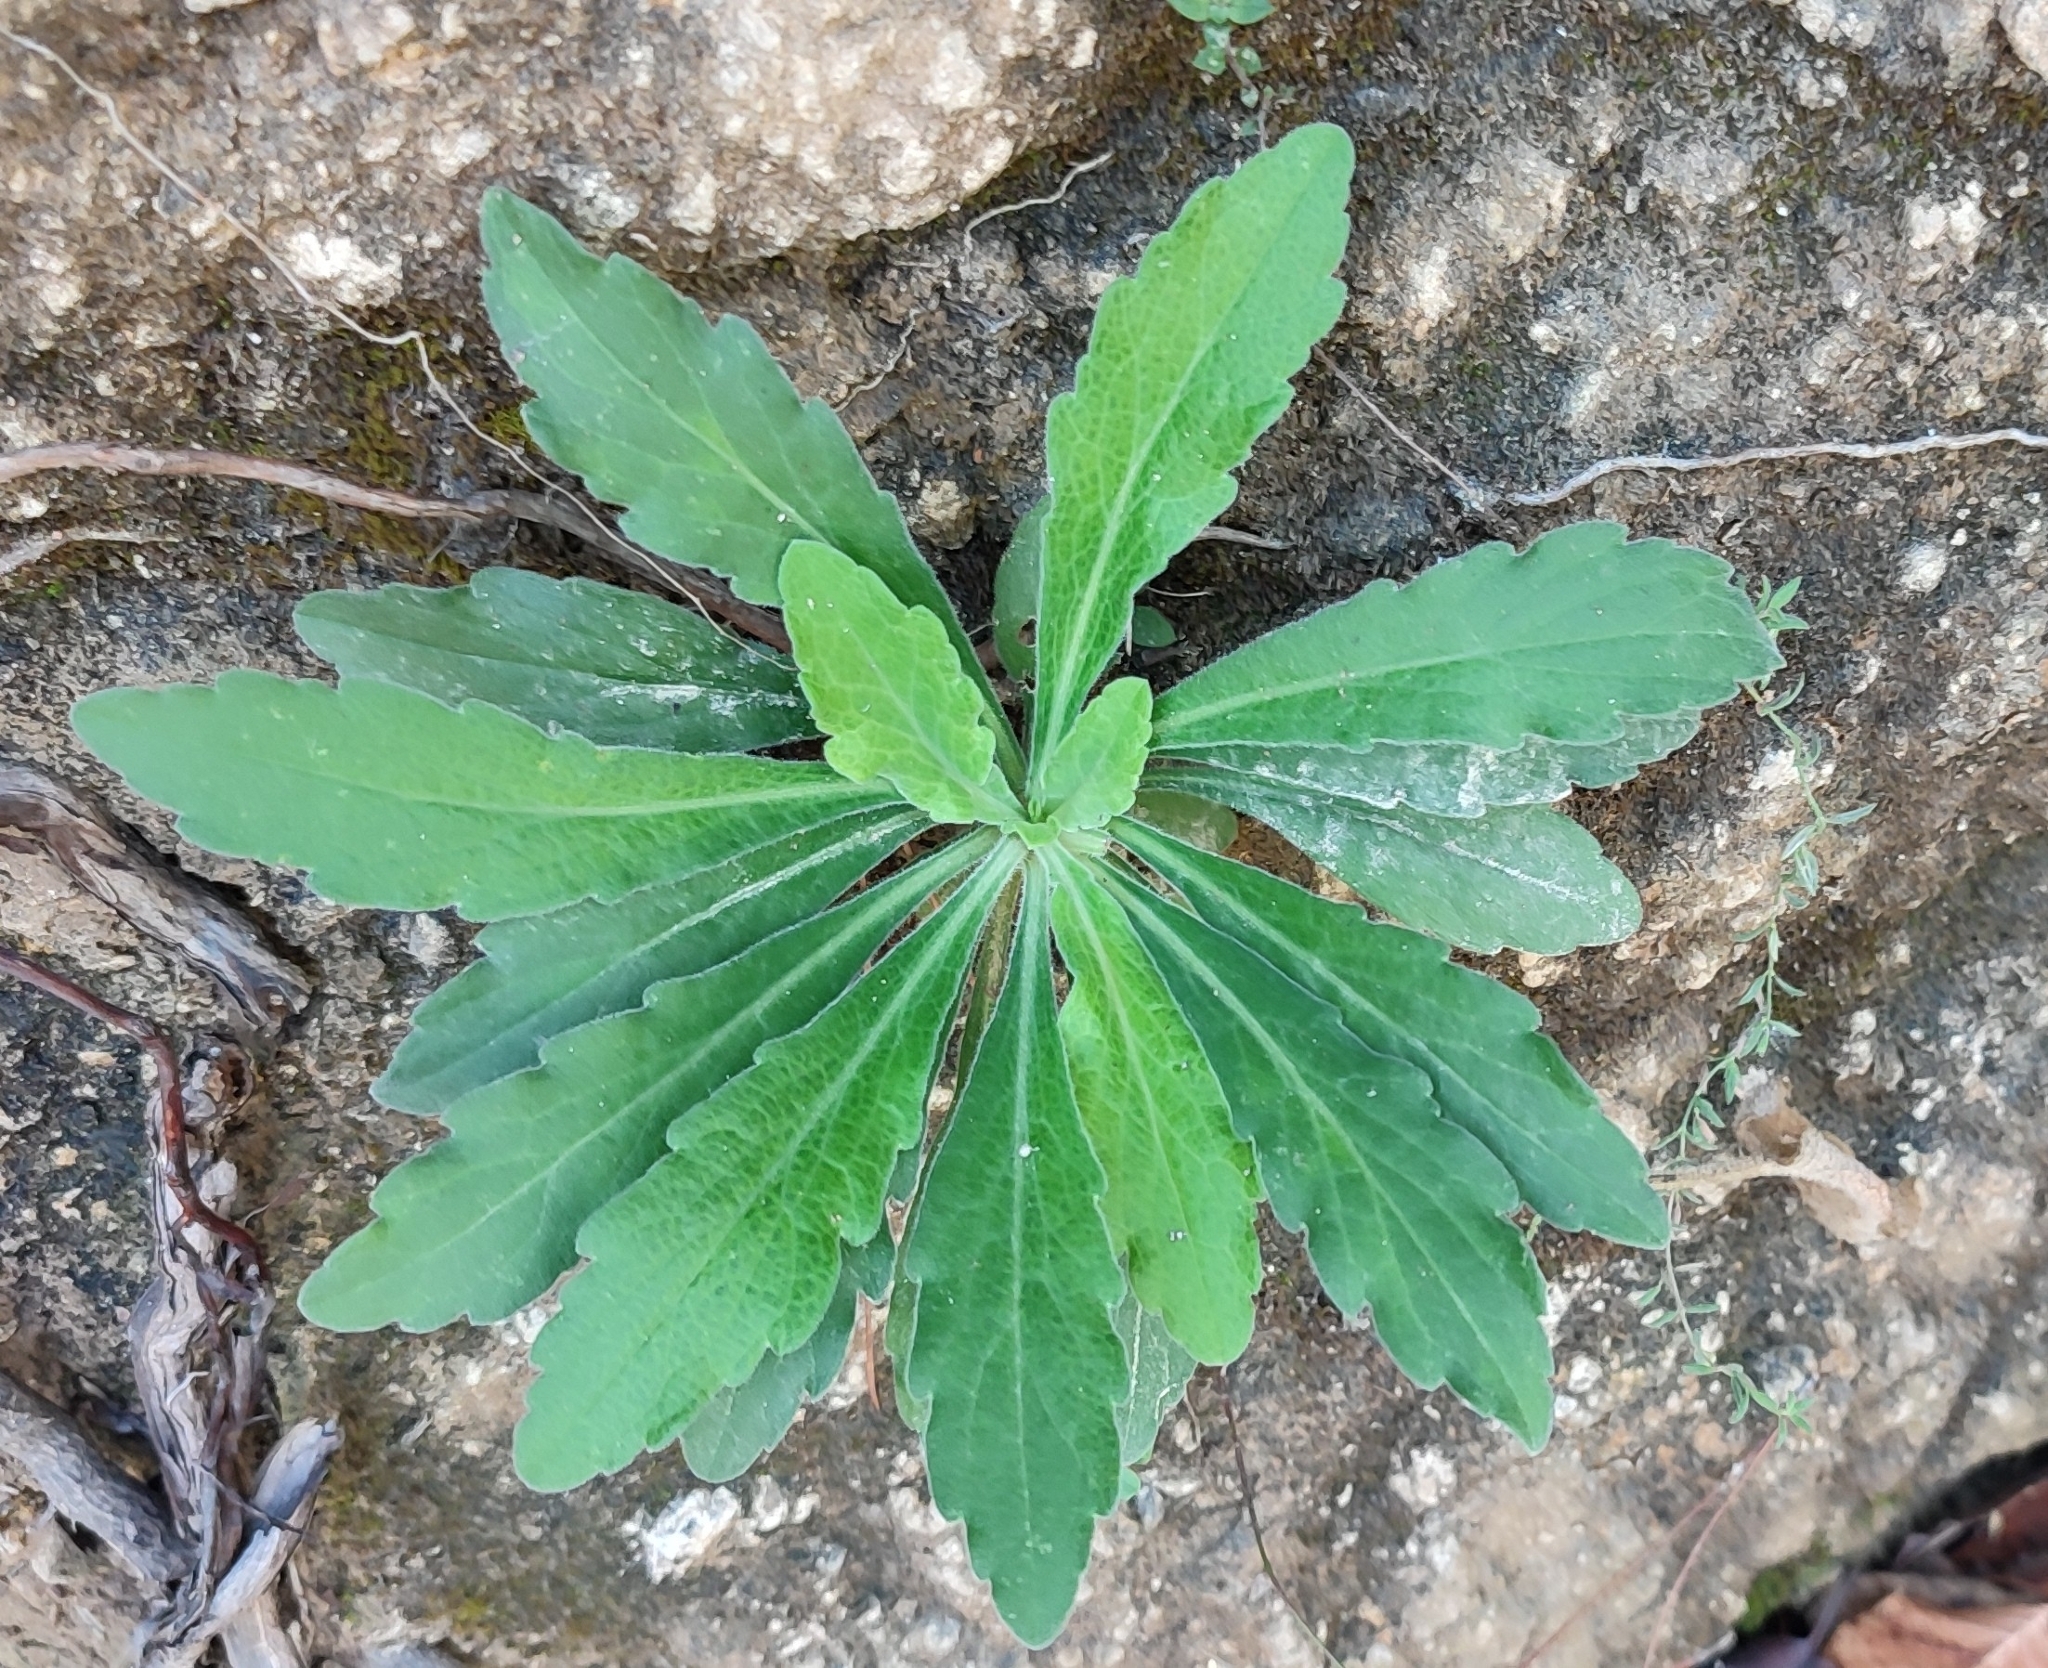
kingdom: Plantae
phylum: Tracheophyta
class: Magnoliopsida
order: Asterales
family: Asteraceae
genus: Erigeron
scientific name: Erigeron sumatrensis
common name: Daisy
